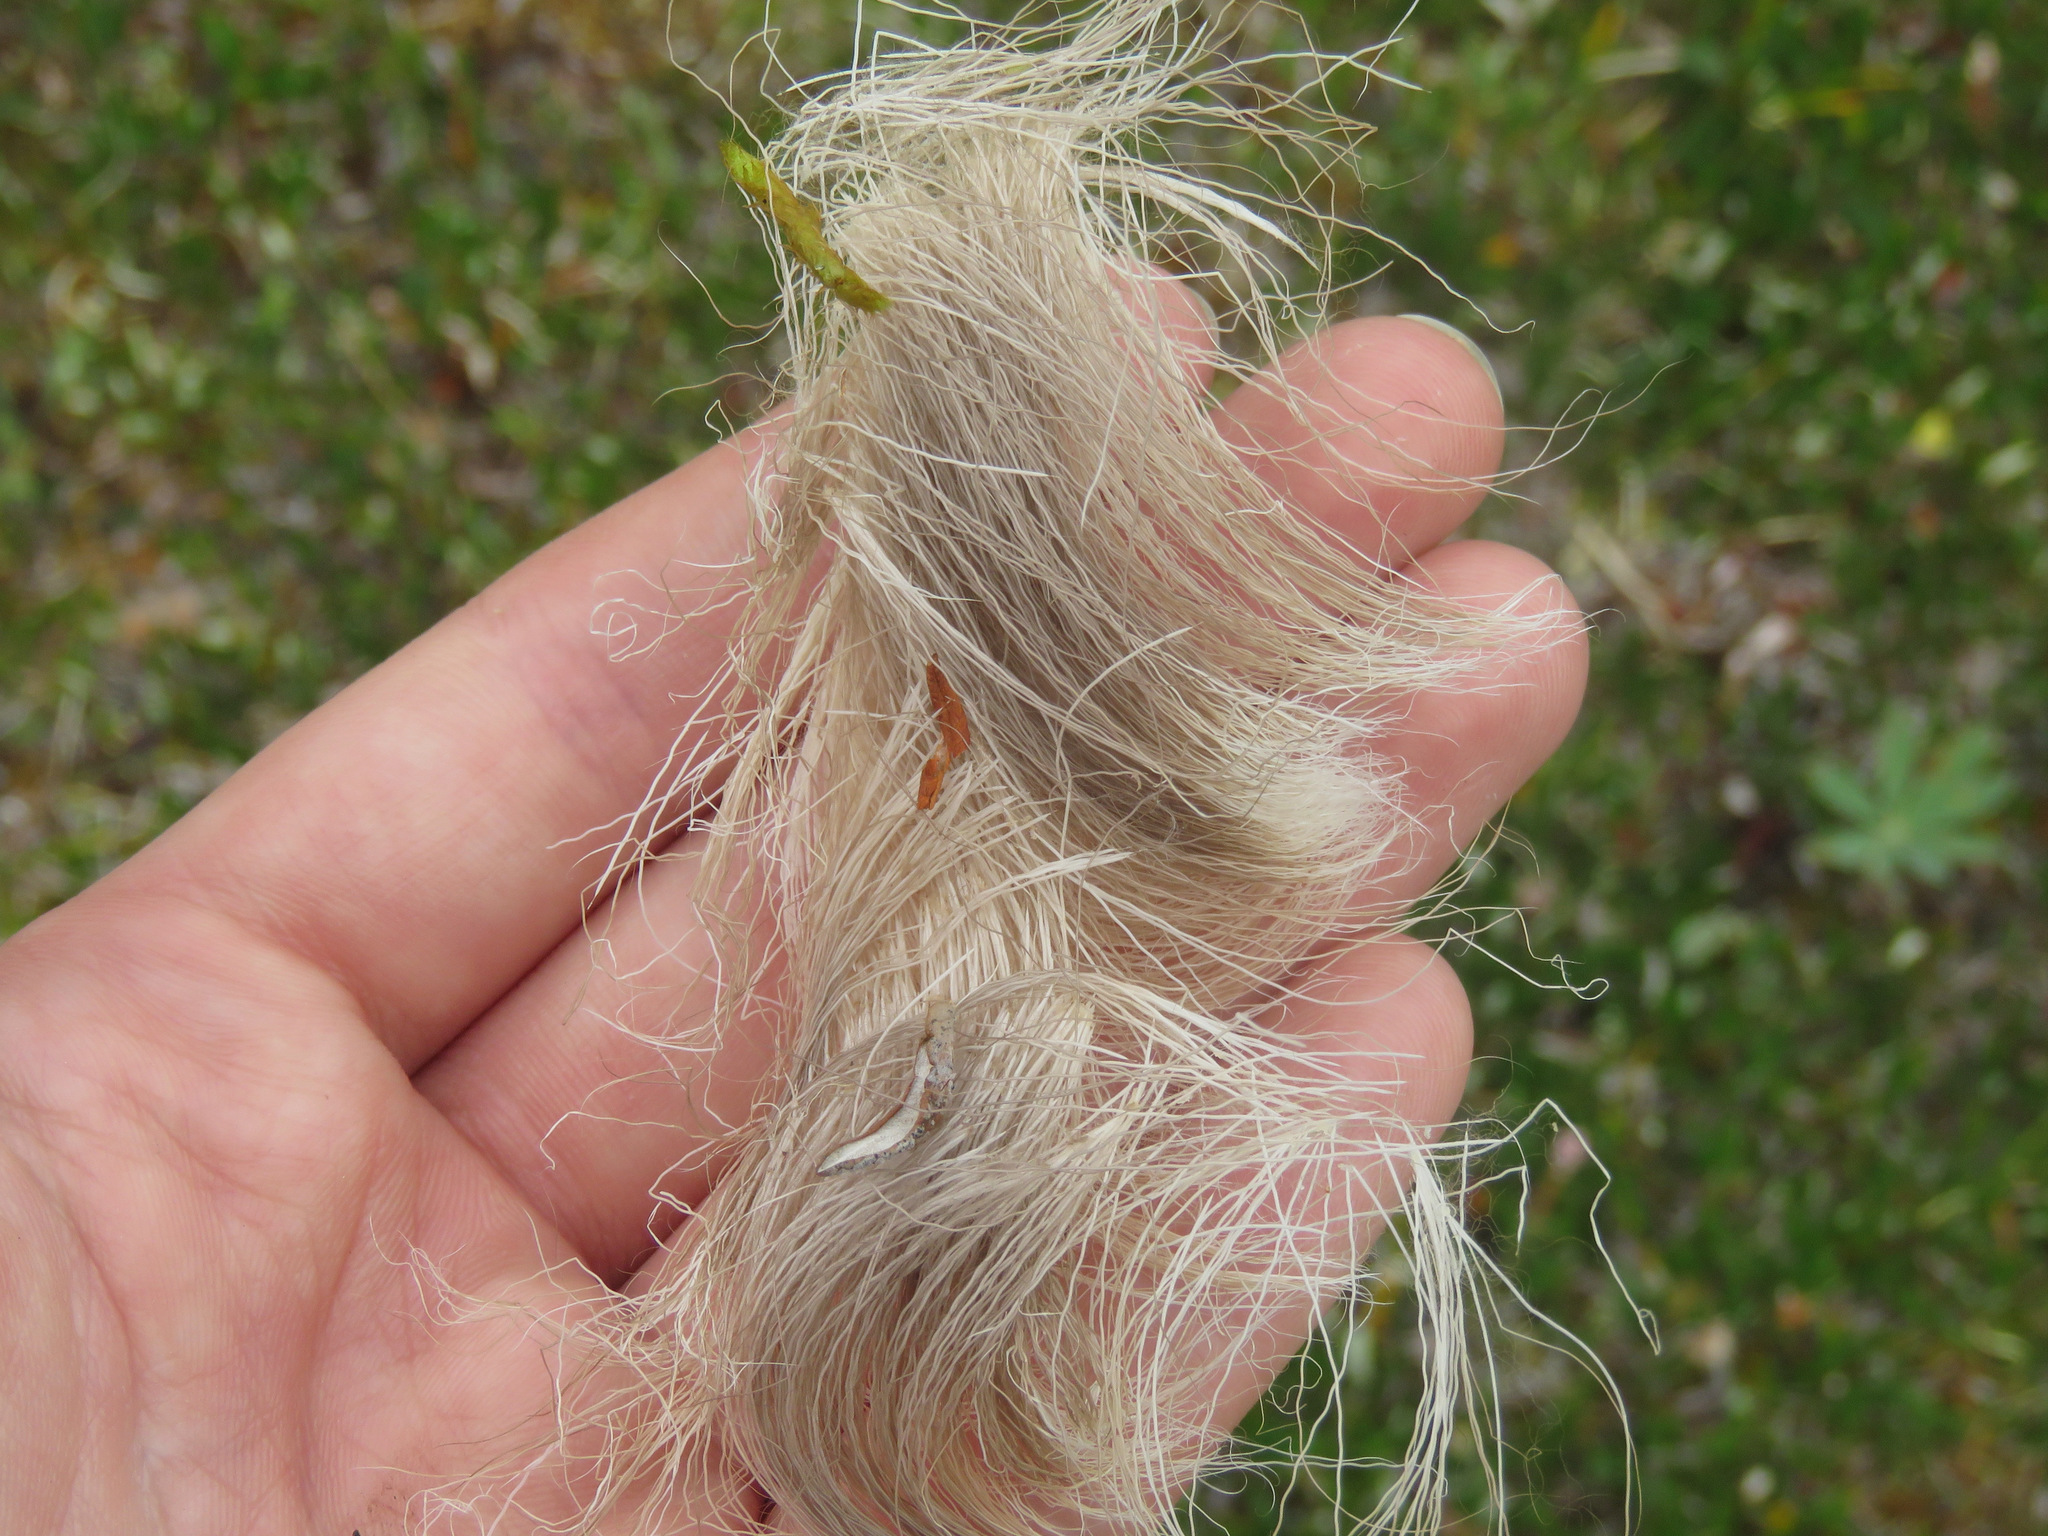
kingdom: Animalia
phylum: Chordata
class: Mammalia
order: Artiodactyla
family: Cervidae
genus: Rangifer
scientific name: Rangifer tarandus
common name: Reindeer
